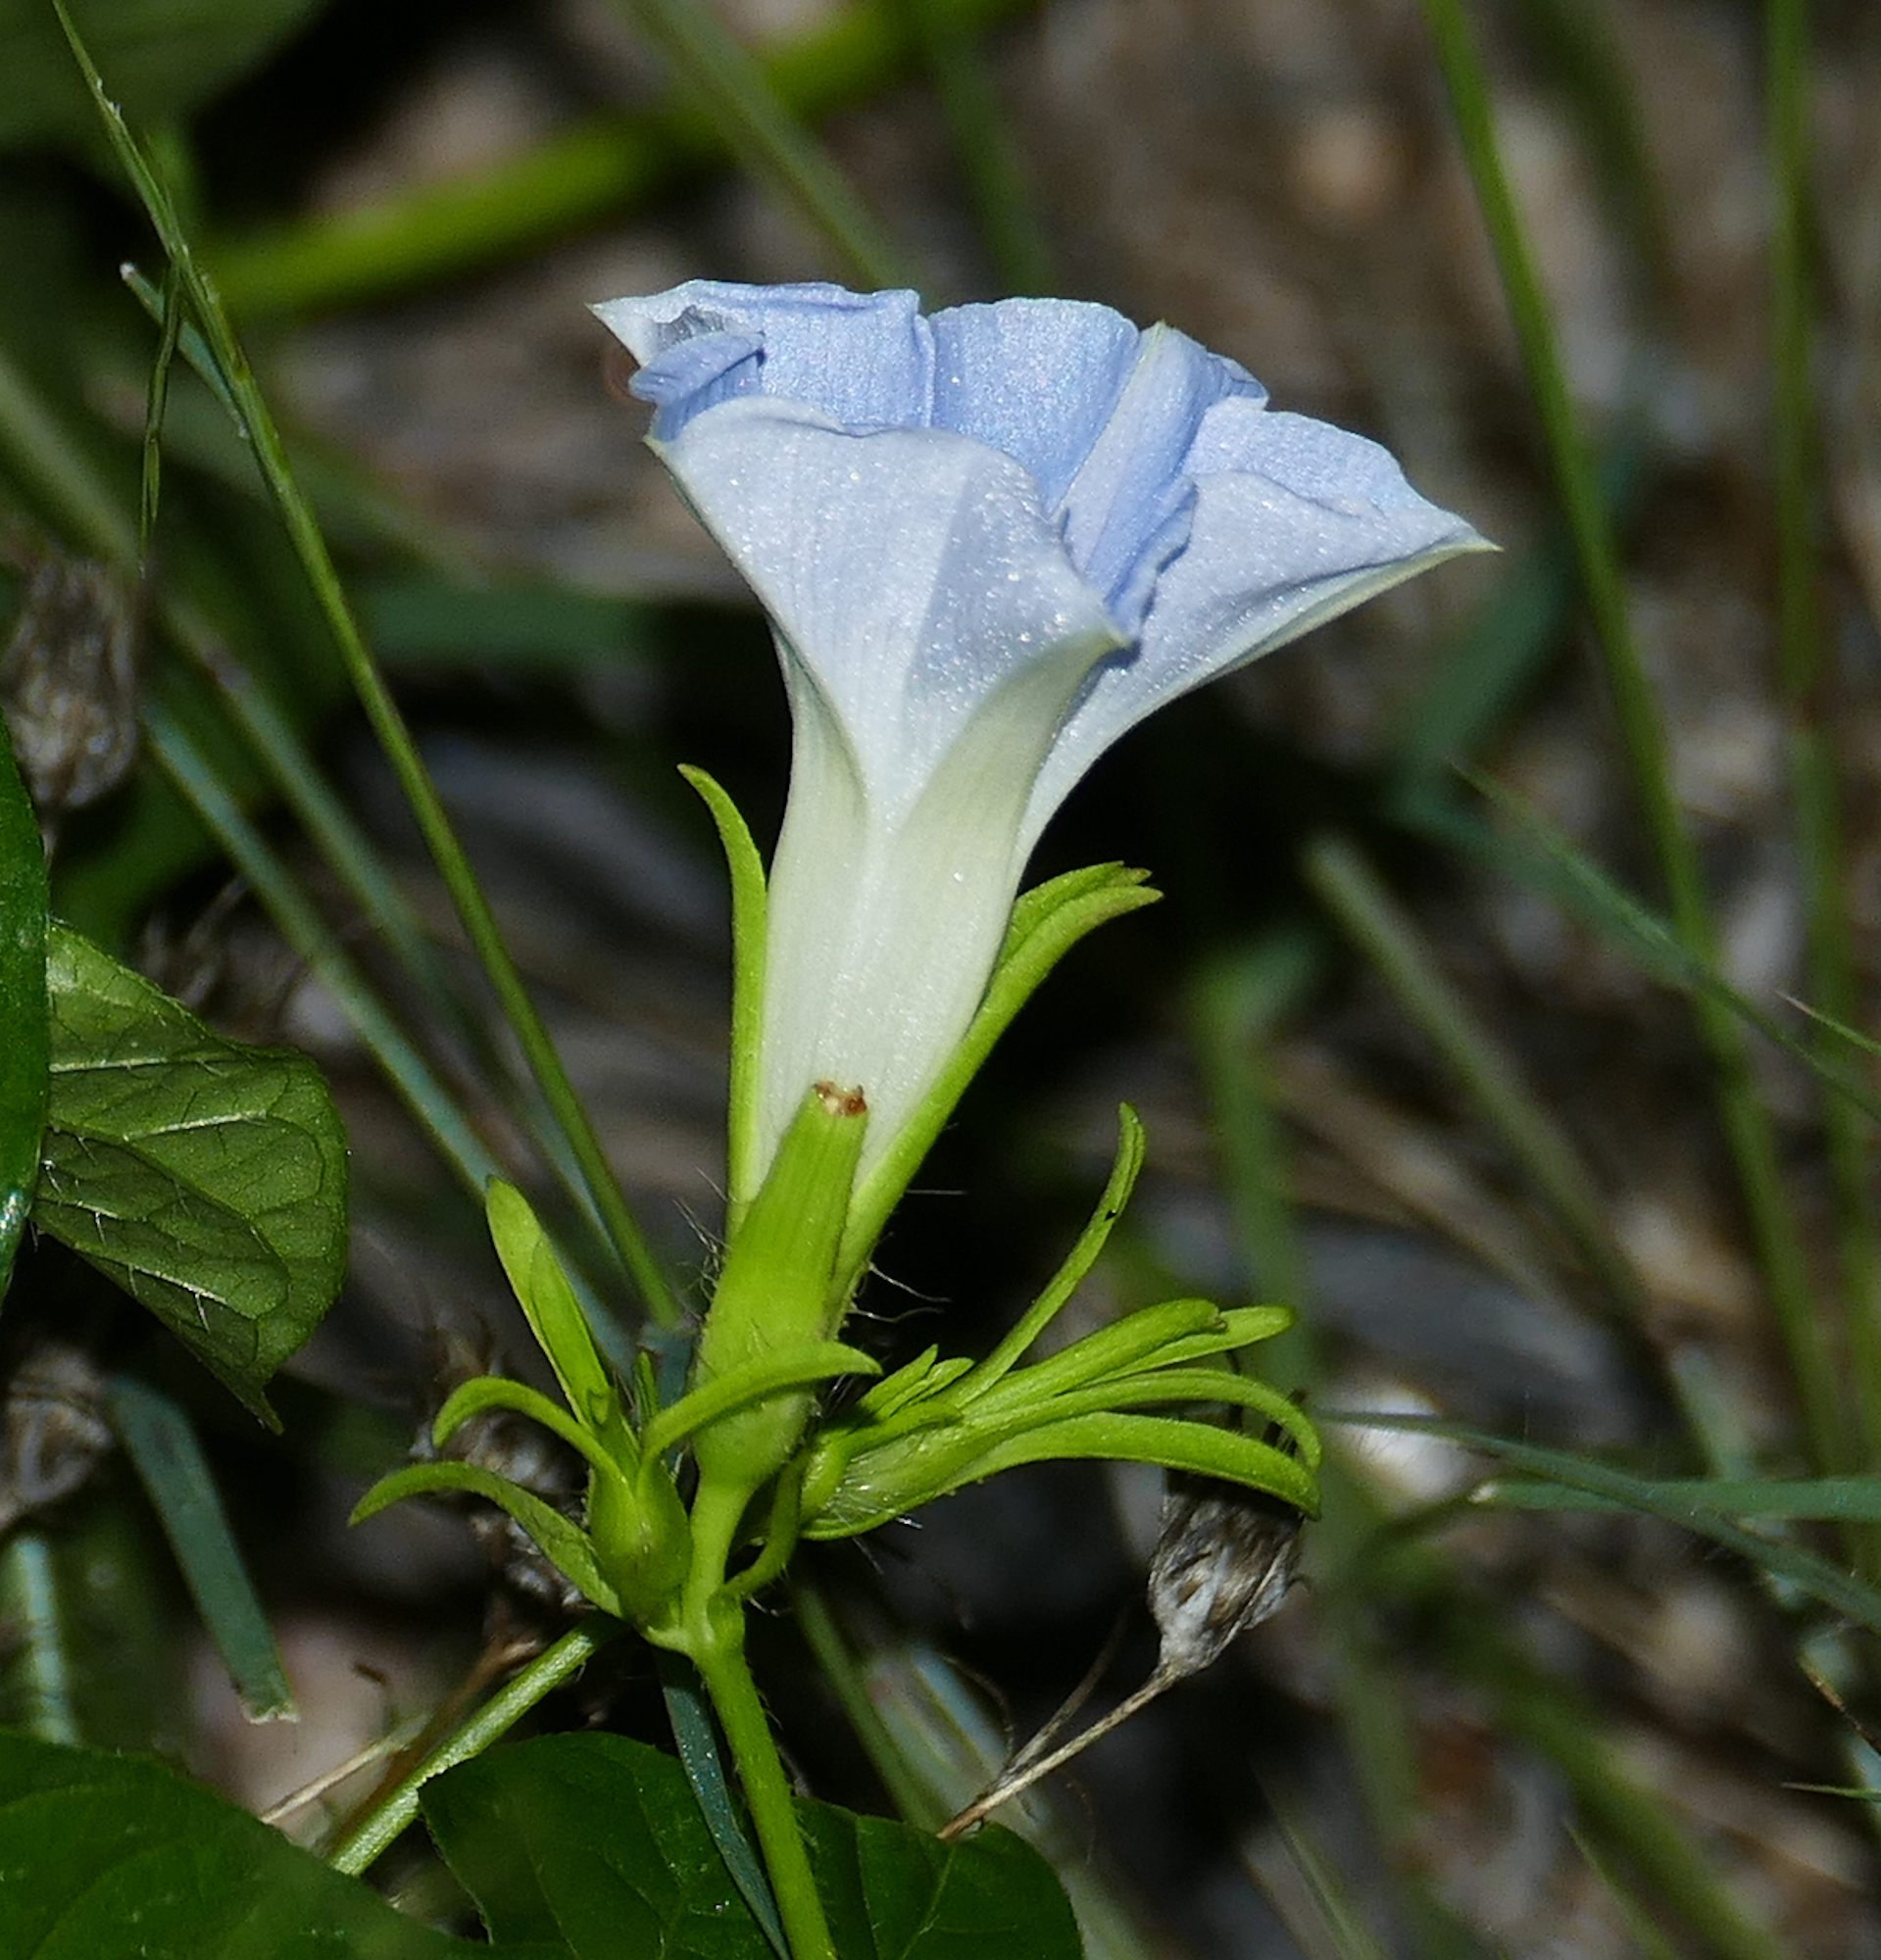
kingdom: Plantae
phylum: Tracheophyta
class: Magnoliopsida
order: Solanales
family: Convolvulaceae
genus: Ipomoea
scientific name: Ipomoea hederacea
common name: Ivy-leaved morning-glory
